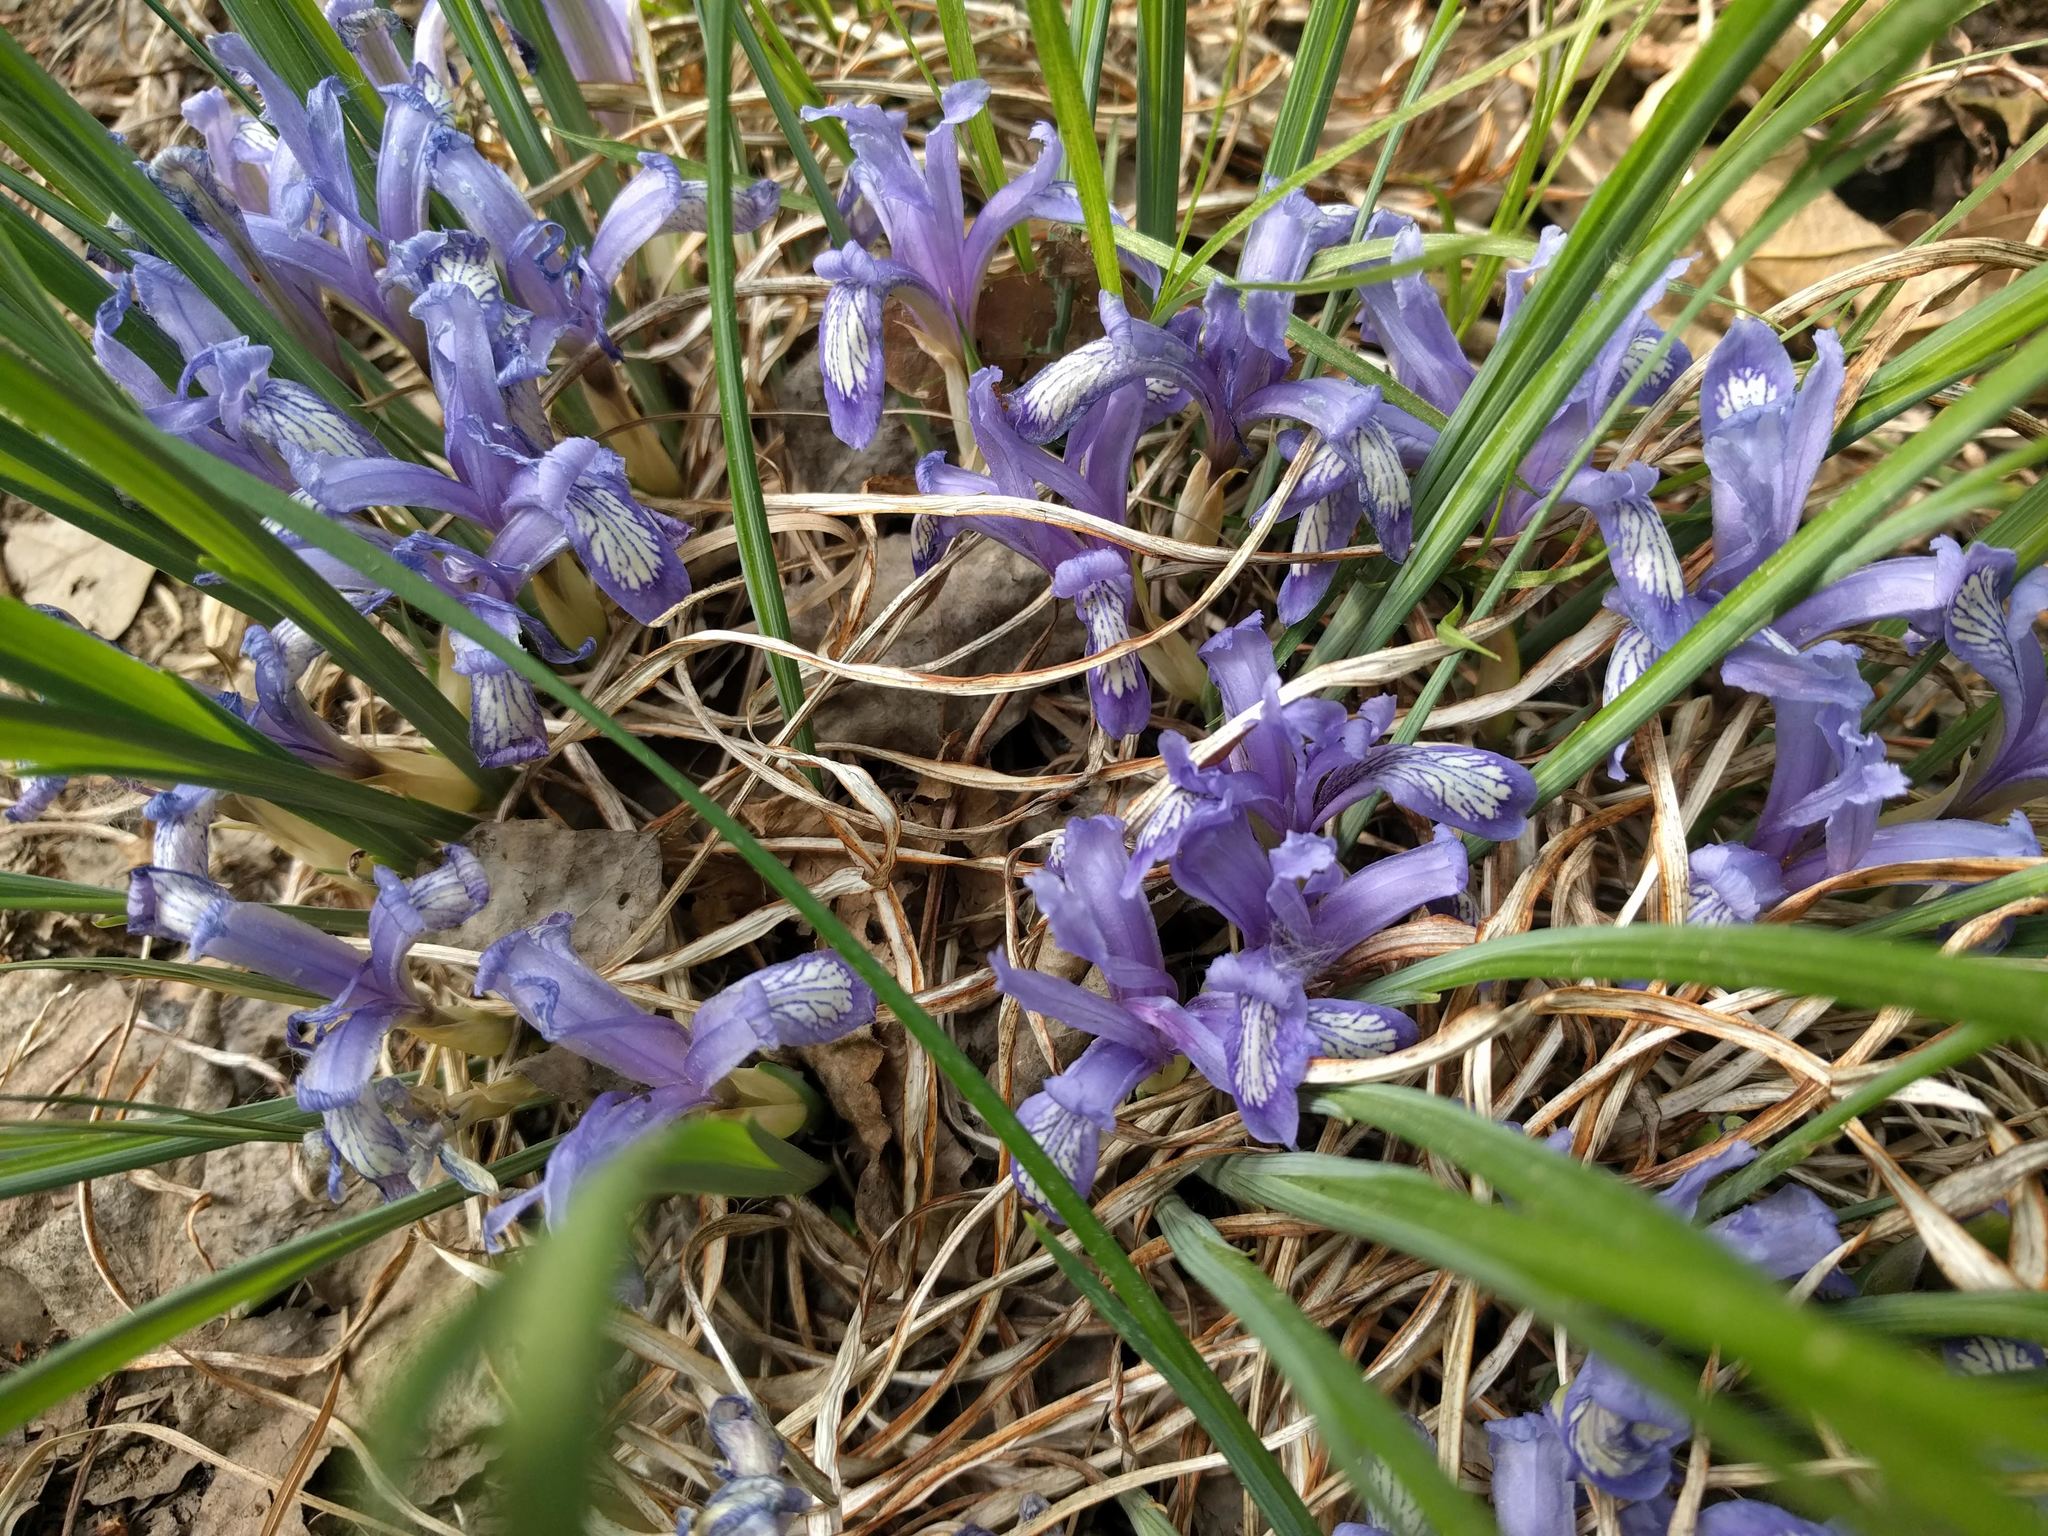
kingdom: Plantae
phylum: Tracheophyta
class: Liliopsida
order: Asparagales
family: Iridaceae
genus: Iris
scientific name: Iris ruthenica
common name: Purple-bract iris
